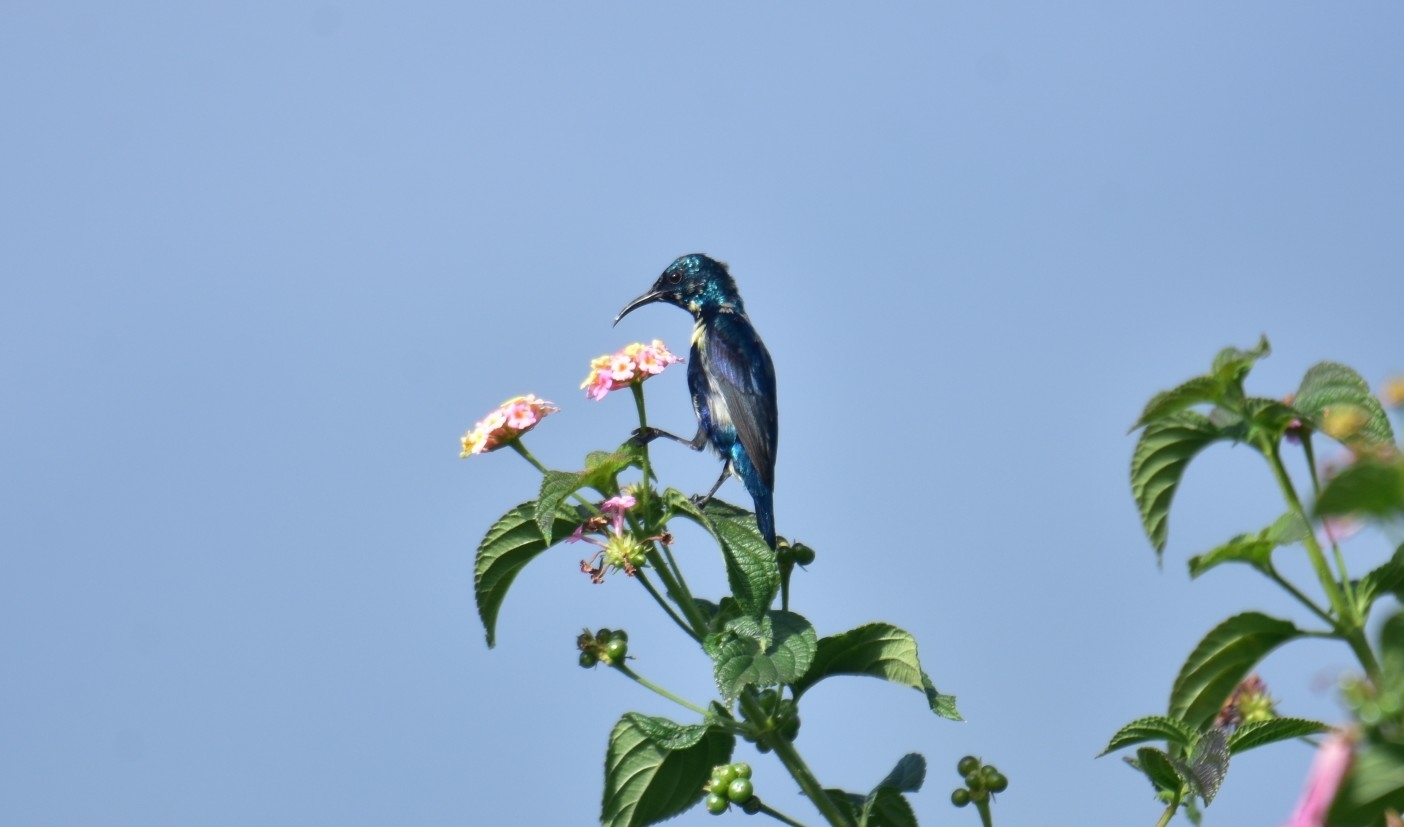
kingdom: Animalia
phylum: Chordata
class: Aves
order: Passeriformes
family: Nectariniidae
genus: Cinnyris
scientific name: Cinnyris asiaticus
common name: Purple sunbird
